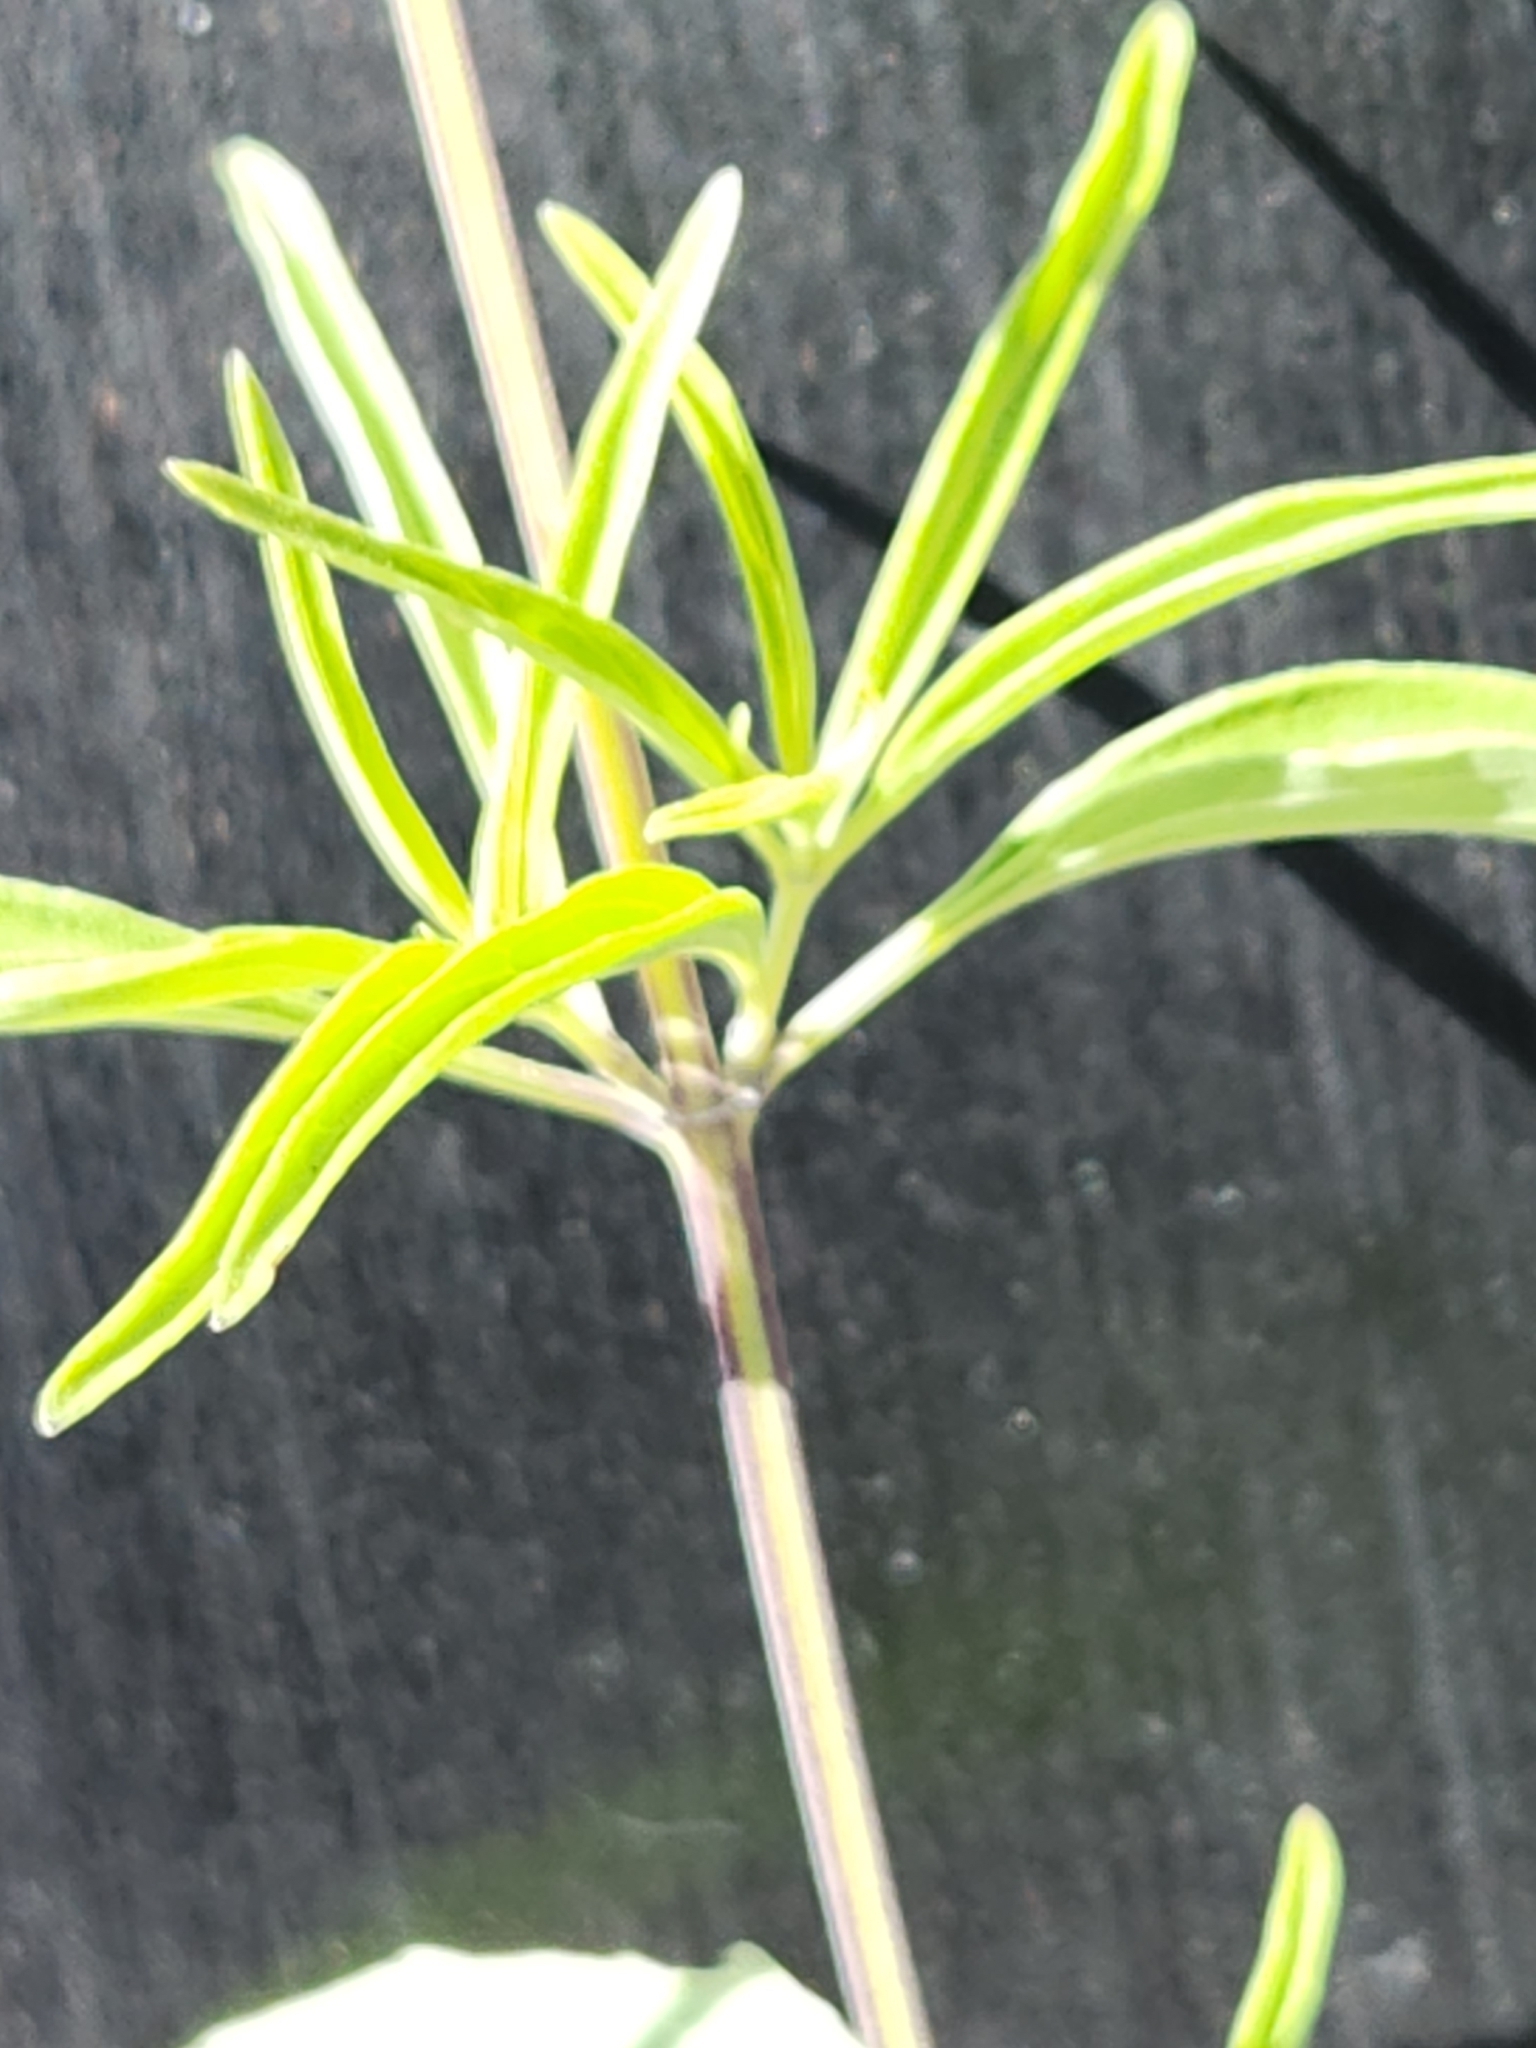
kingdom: Plantae
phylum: Tracheophyta
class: Magnoliopsida
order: Lamiales
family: Lamiaceae
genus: Salvia
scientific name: Salvia farinacea
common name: Mealy sage
